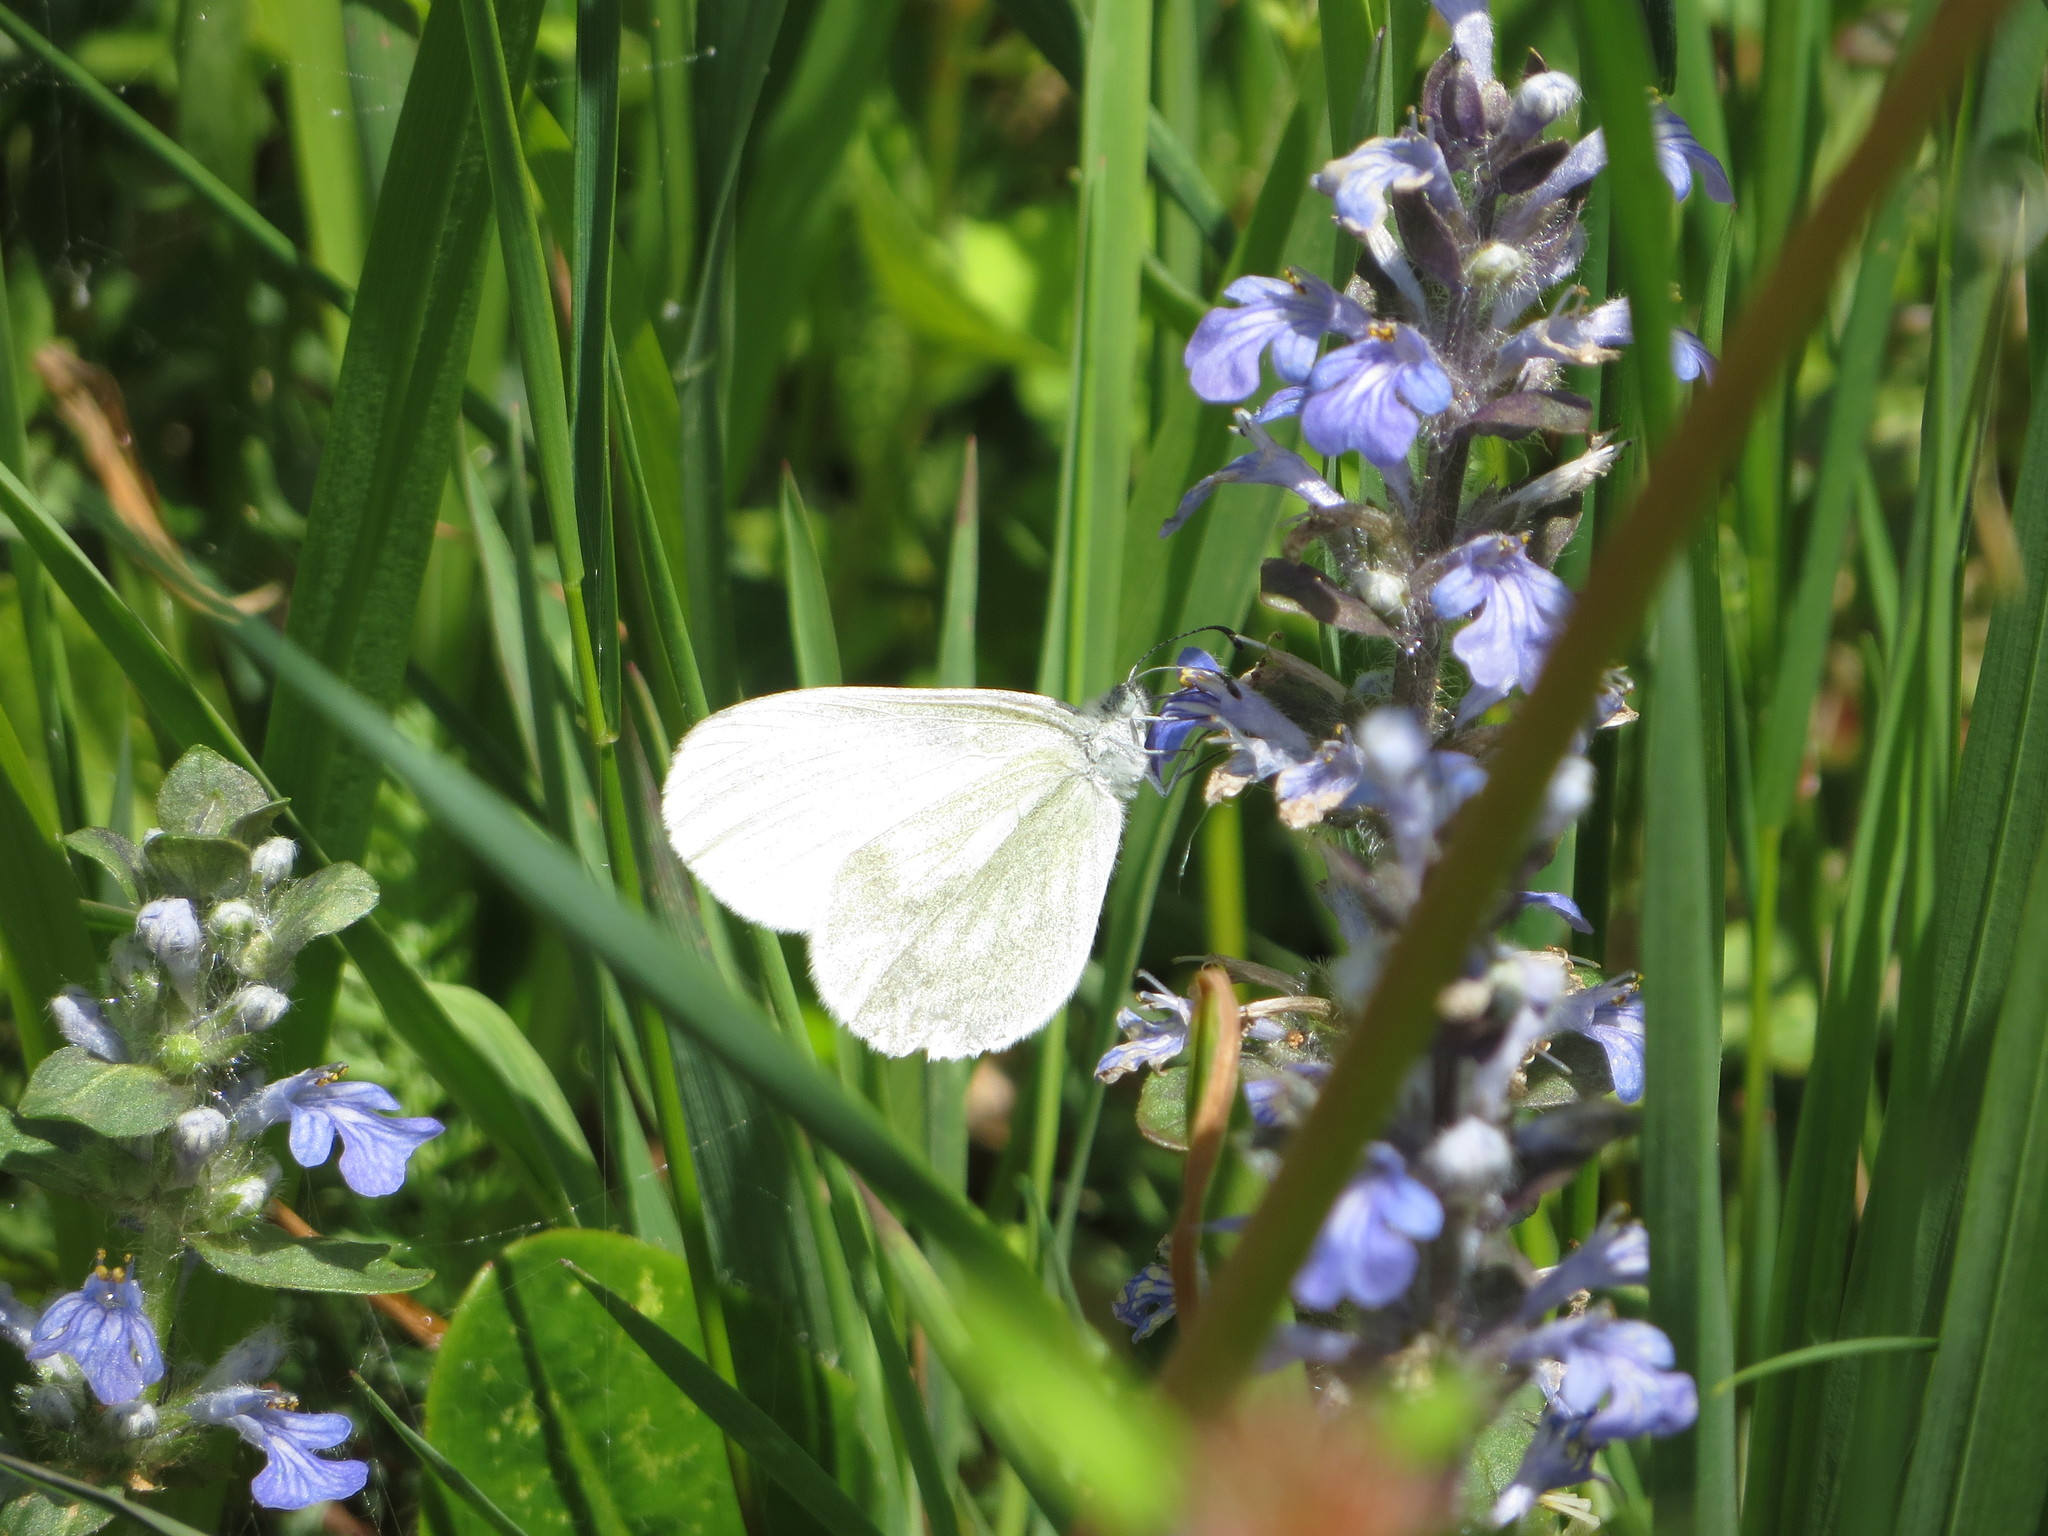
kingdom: Animalia
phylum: Arthropoda
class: Insecta
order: Lepidoptera
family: Pieridae
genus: Leptidea
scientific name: Leptidea
